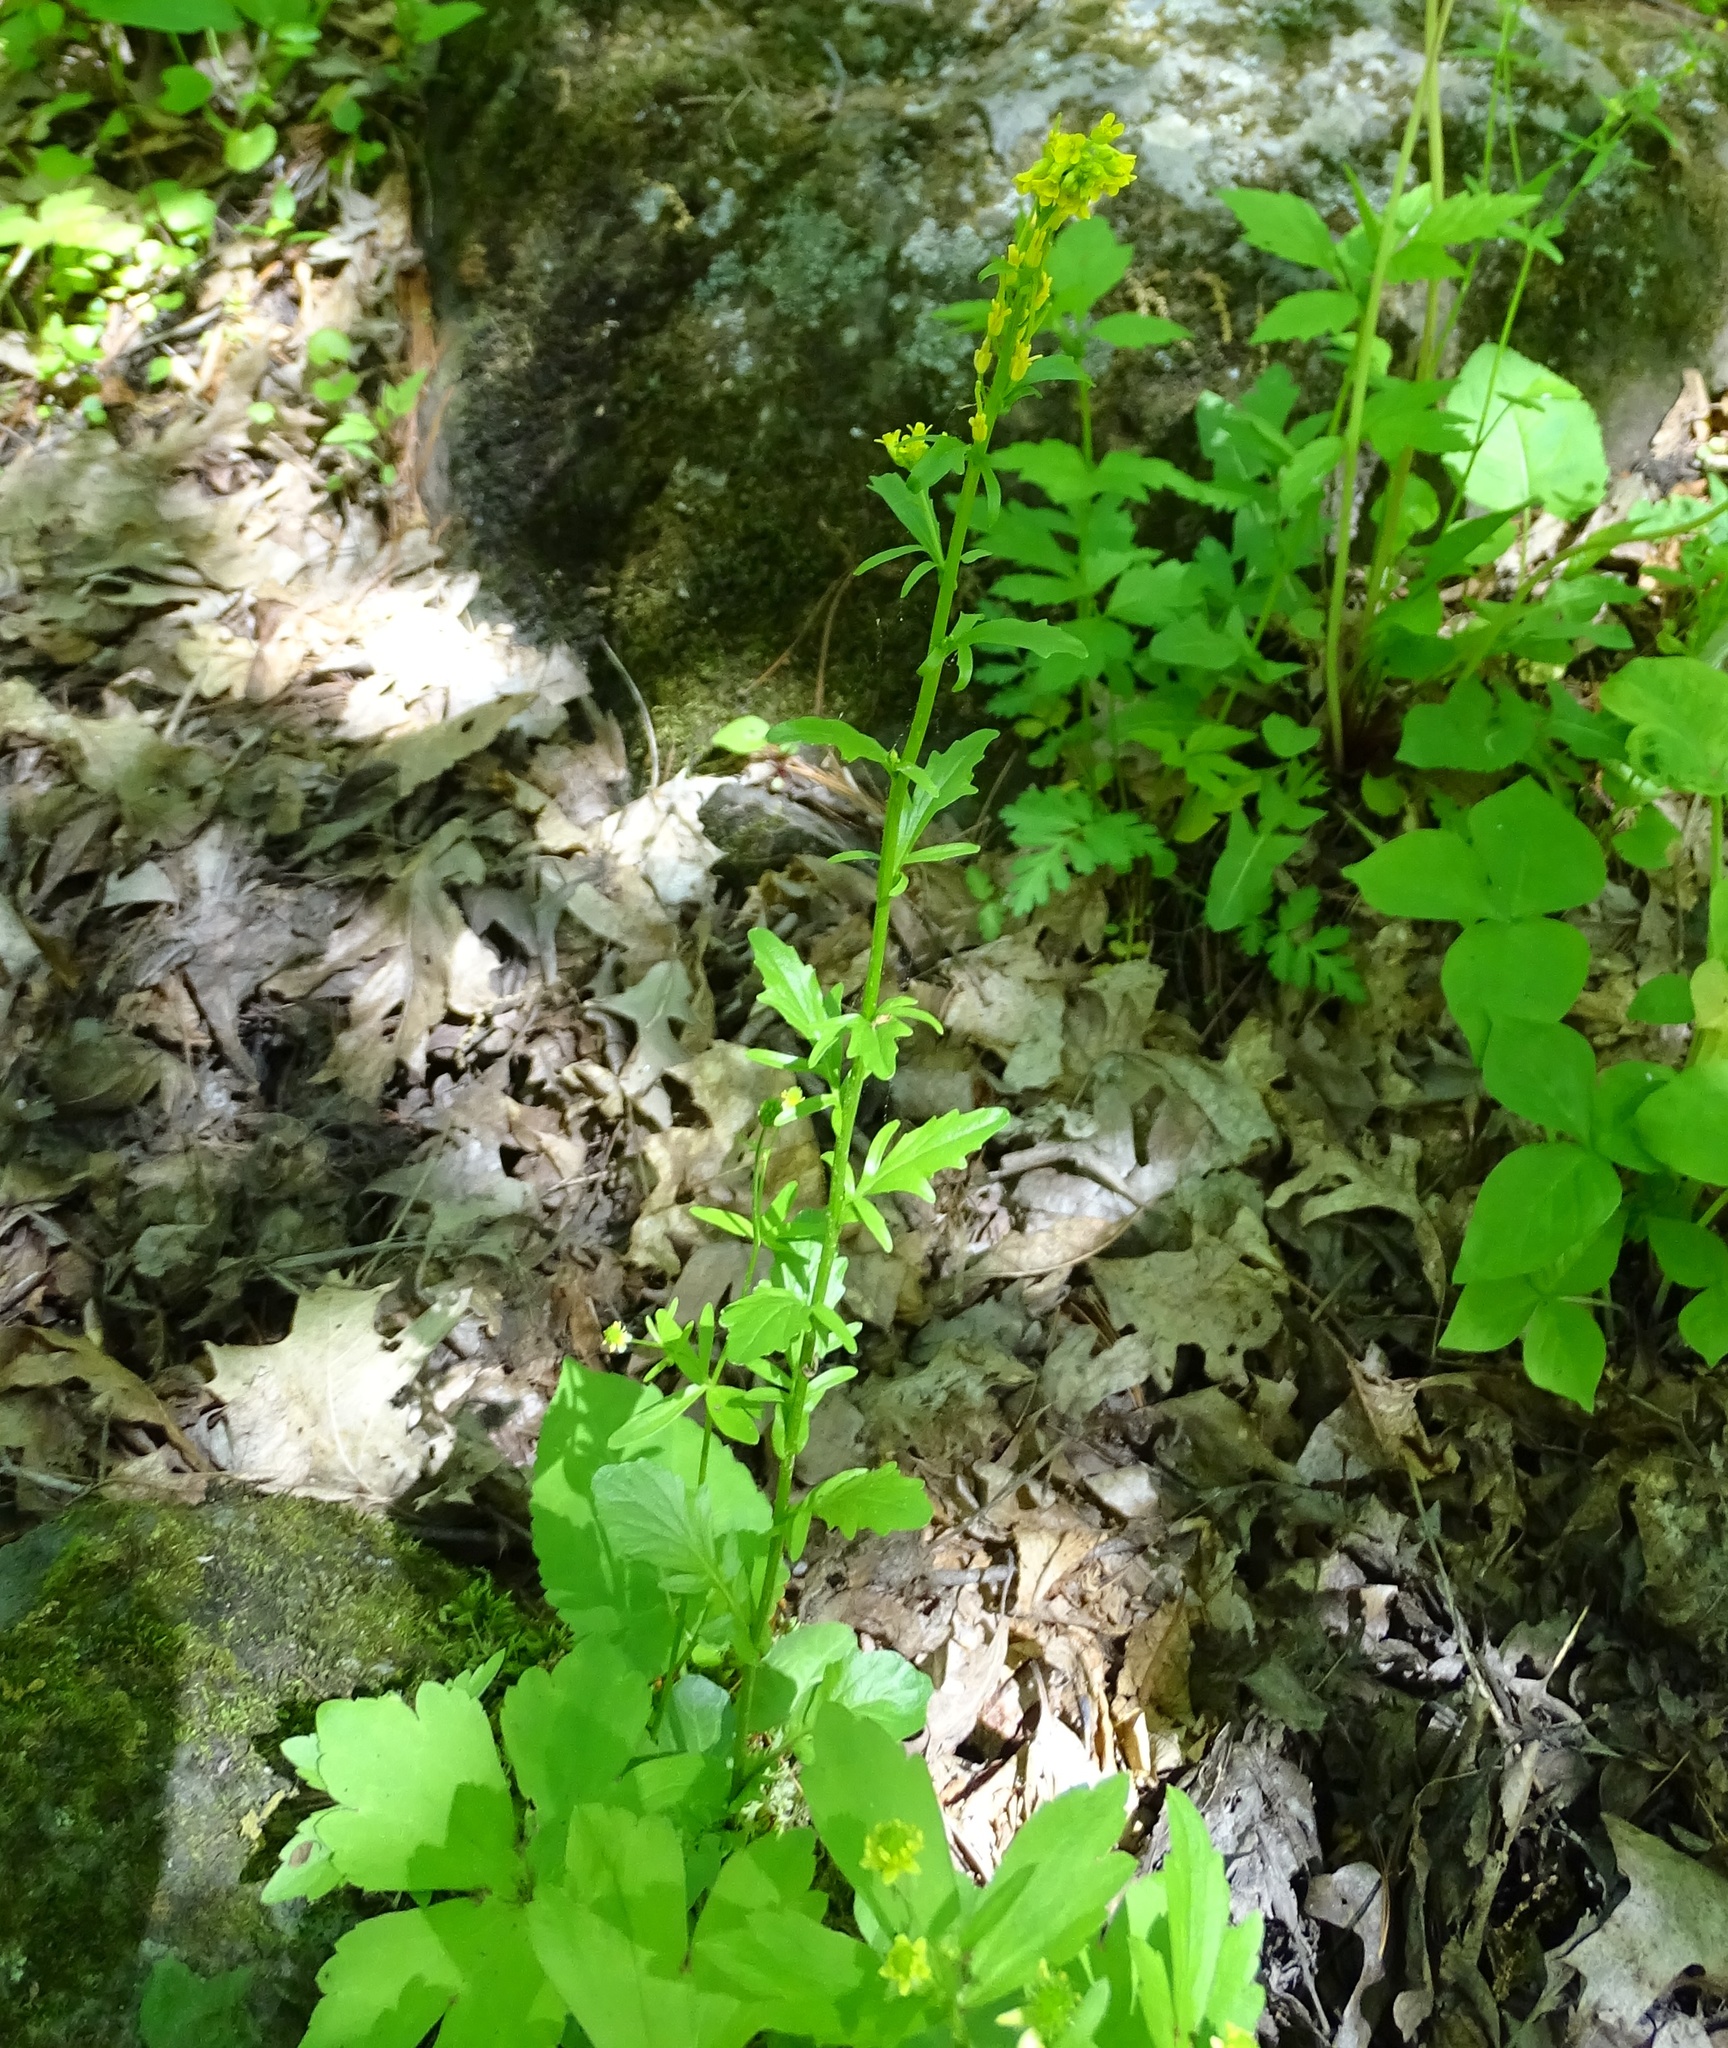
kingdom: Plantae
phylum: Tracheophyta
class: Magnoliopsida
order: Brassicales
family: Brassicaceae
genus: Barbarea
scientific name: Barbarea vulgaris
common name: Cressy-greens
